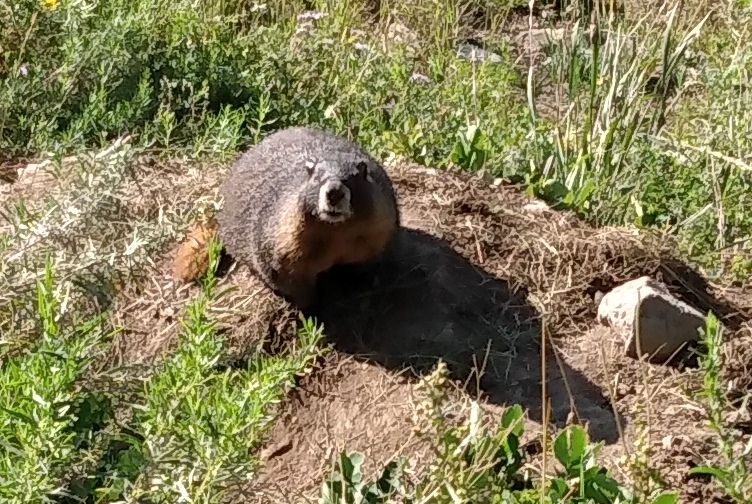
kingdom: Animalia
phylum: Chordata
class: Mammalia
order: Rodentia
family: Sciuridae
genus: Marmota
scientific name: Marmota flaviventris
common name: Yellow-bellied marmot
